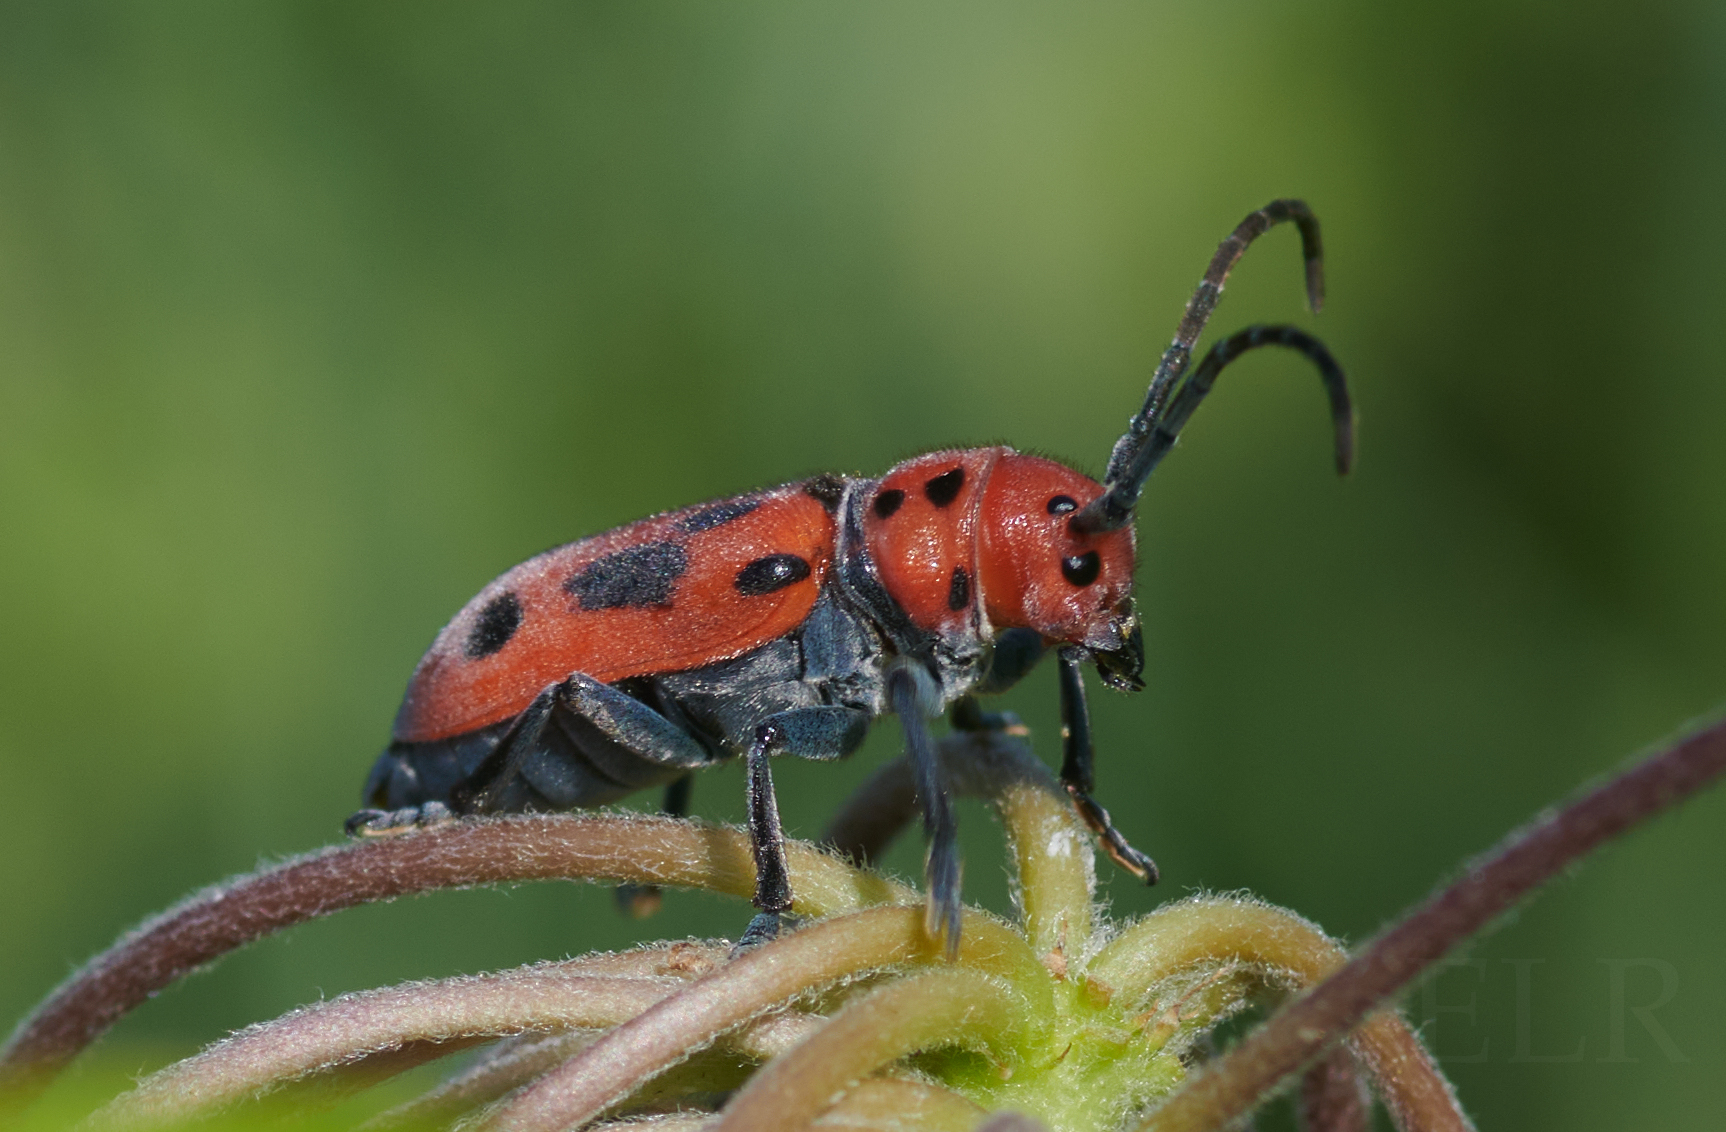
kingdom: Animalia
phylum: Arthropoda
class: Insecta
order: Coleoptera
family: Cerambycidae
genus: Tetraopes
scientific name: Tetraopes tetrophthalmus
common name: Red milkweed beetle
